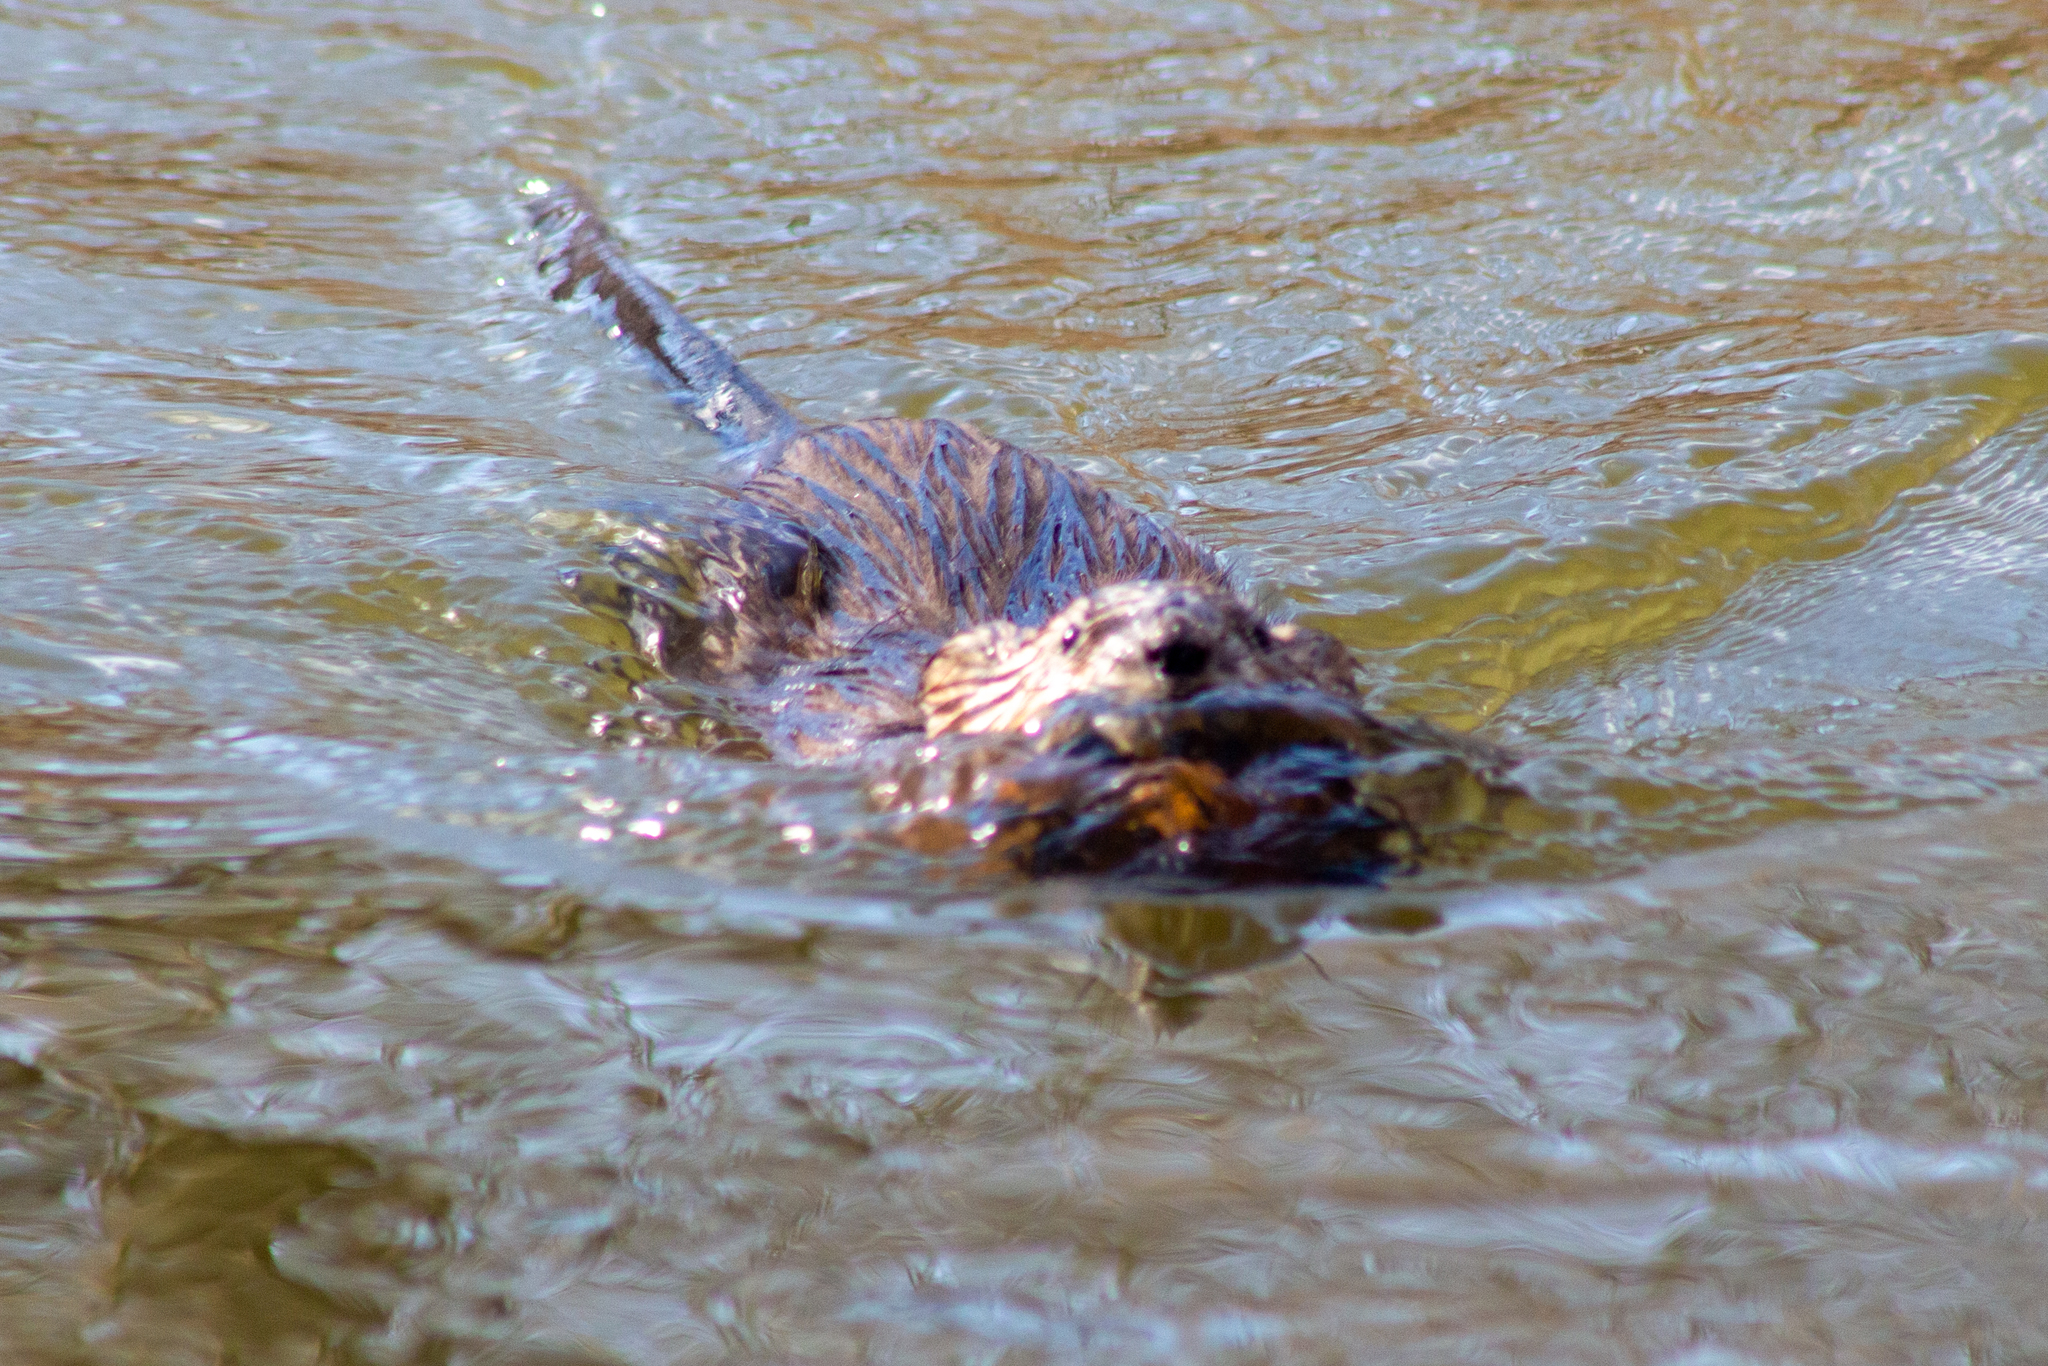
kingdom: Animalia
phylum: Chordata
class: Mammalia
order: Rodentia
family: Cricetidae
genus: Ondatra
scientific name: Ondatra zibethicus
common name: Muskrat
